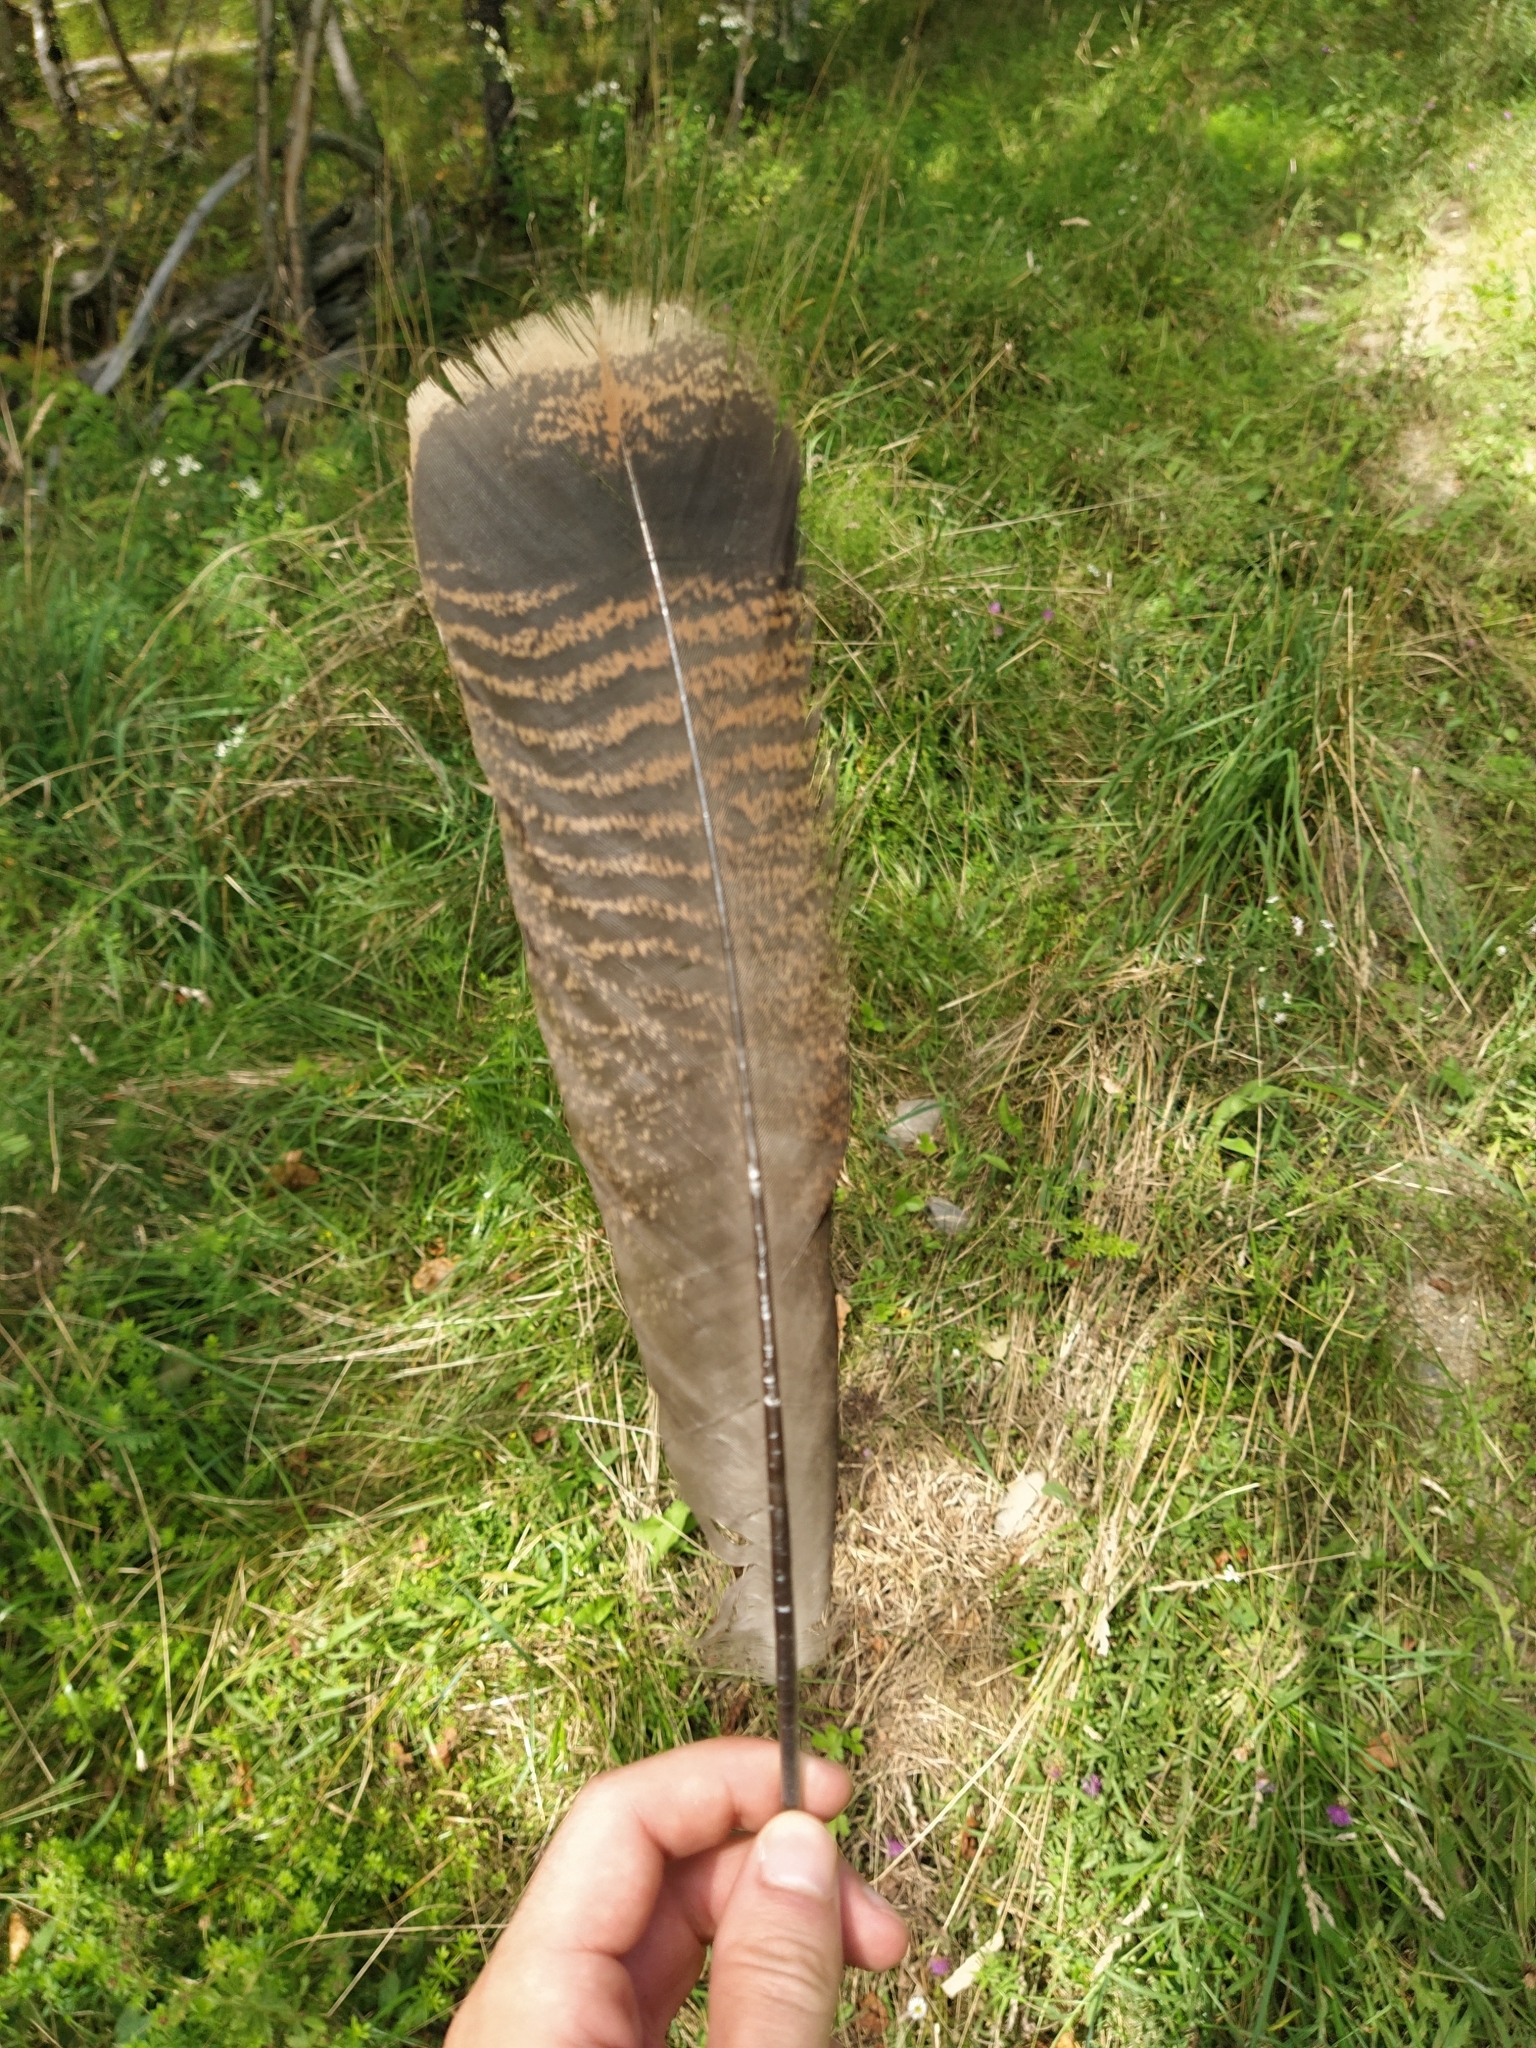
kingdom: Animalia
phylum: Chordata
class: Aves
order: Galliformes
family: Phasianidae
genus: Meleagris
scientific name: Meleagris gallopavo
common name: Wild turkey
